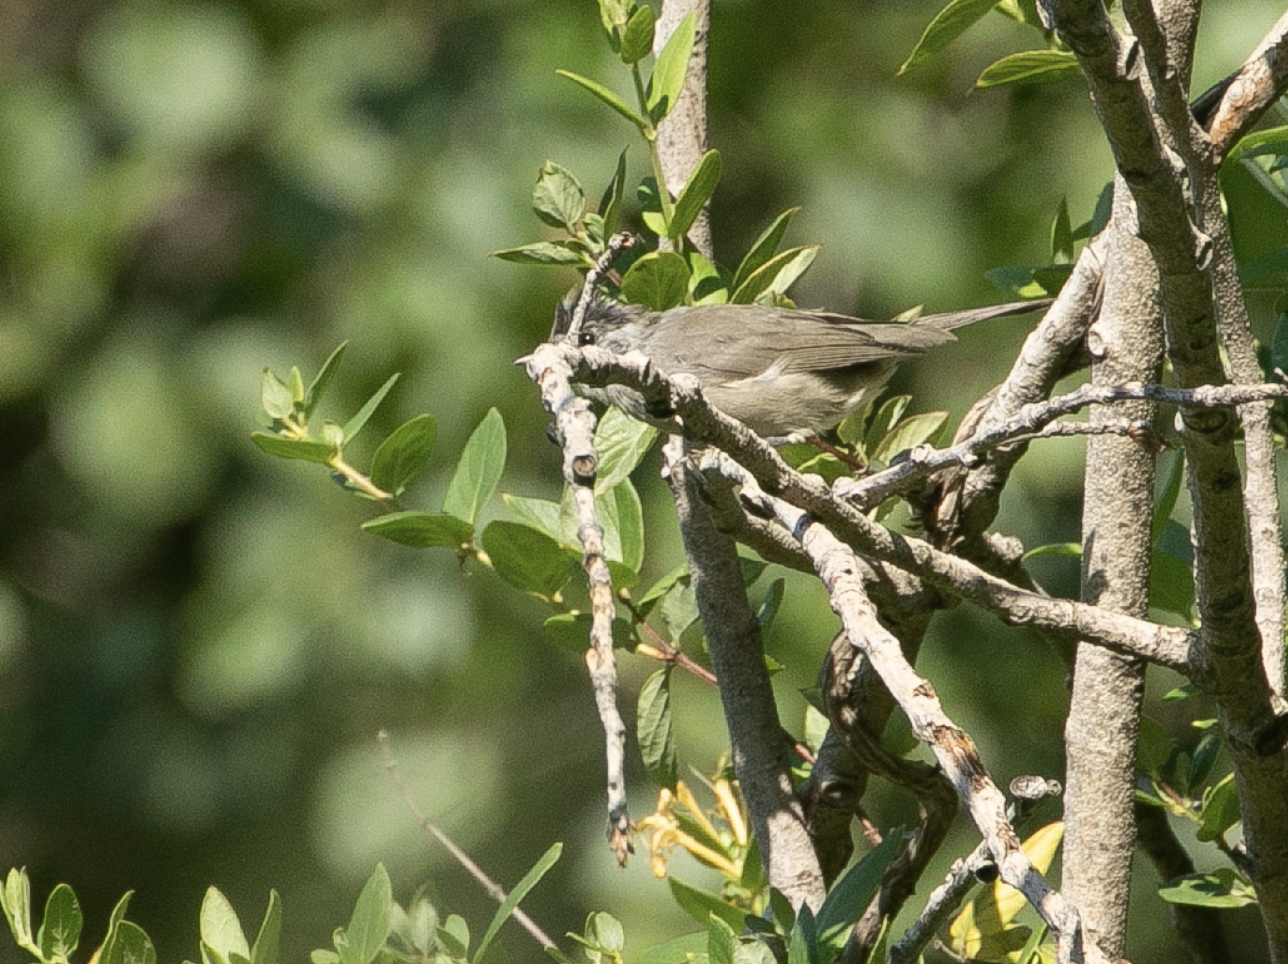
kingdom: Animalia
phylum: Chordata
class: Aves
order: Passeriformes
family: Sylviidae
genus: Sylvia
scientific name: Sylvia atricapilla
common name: Eurasian blackcap
